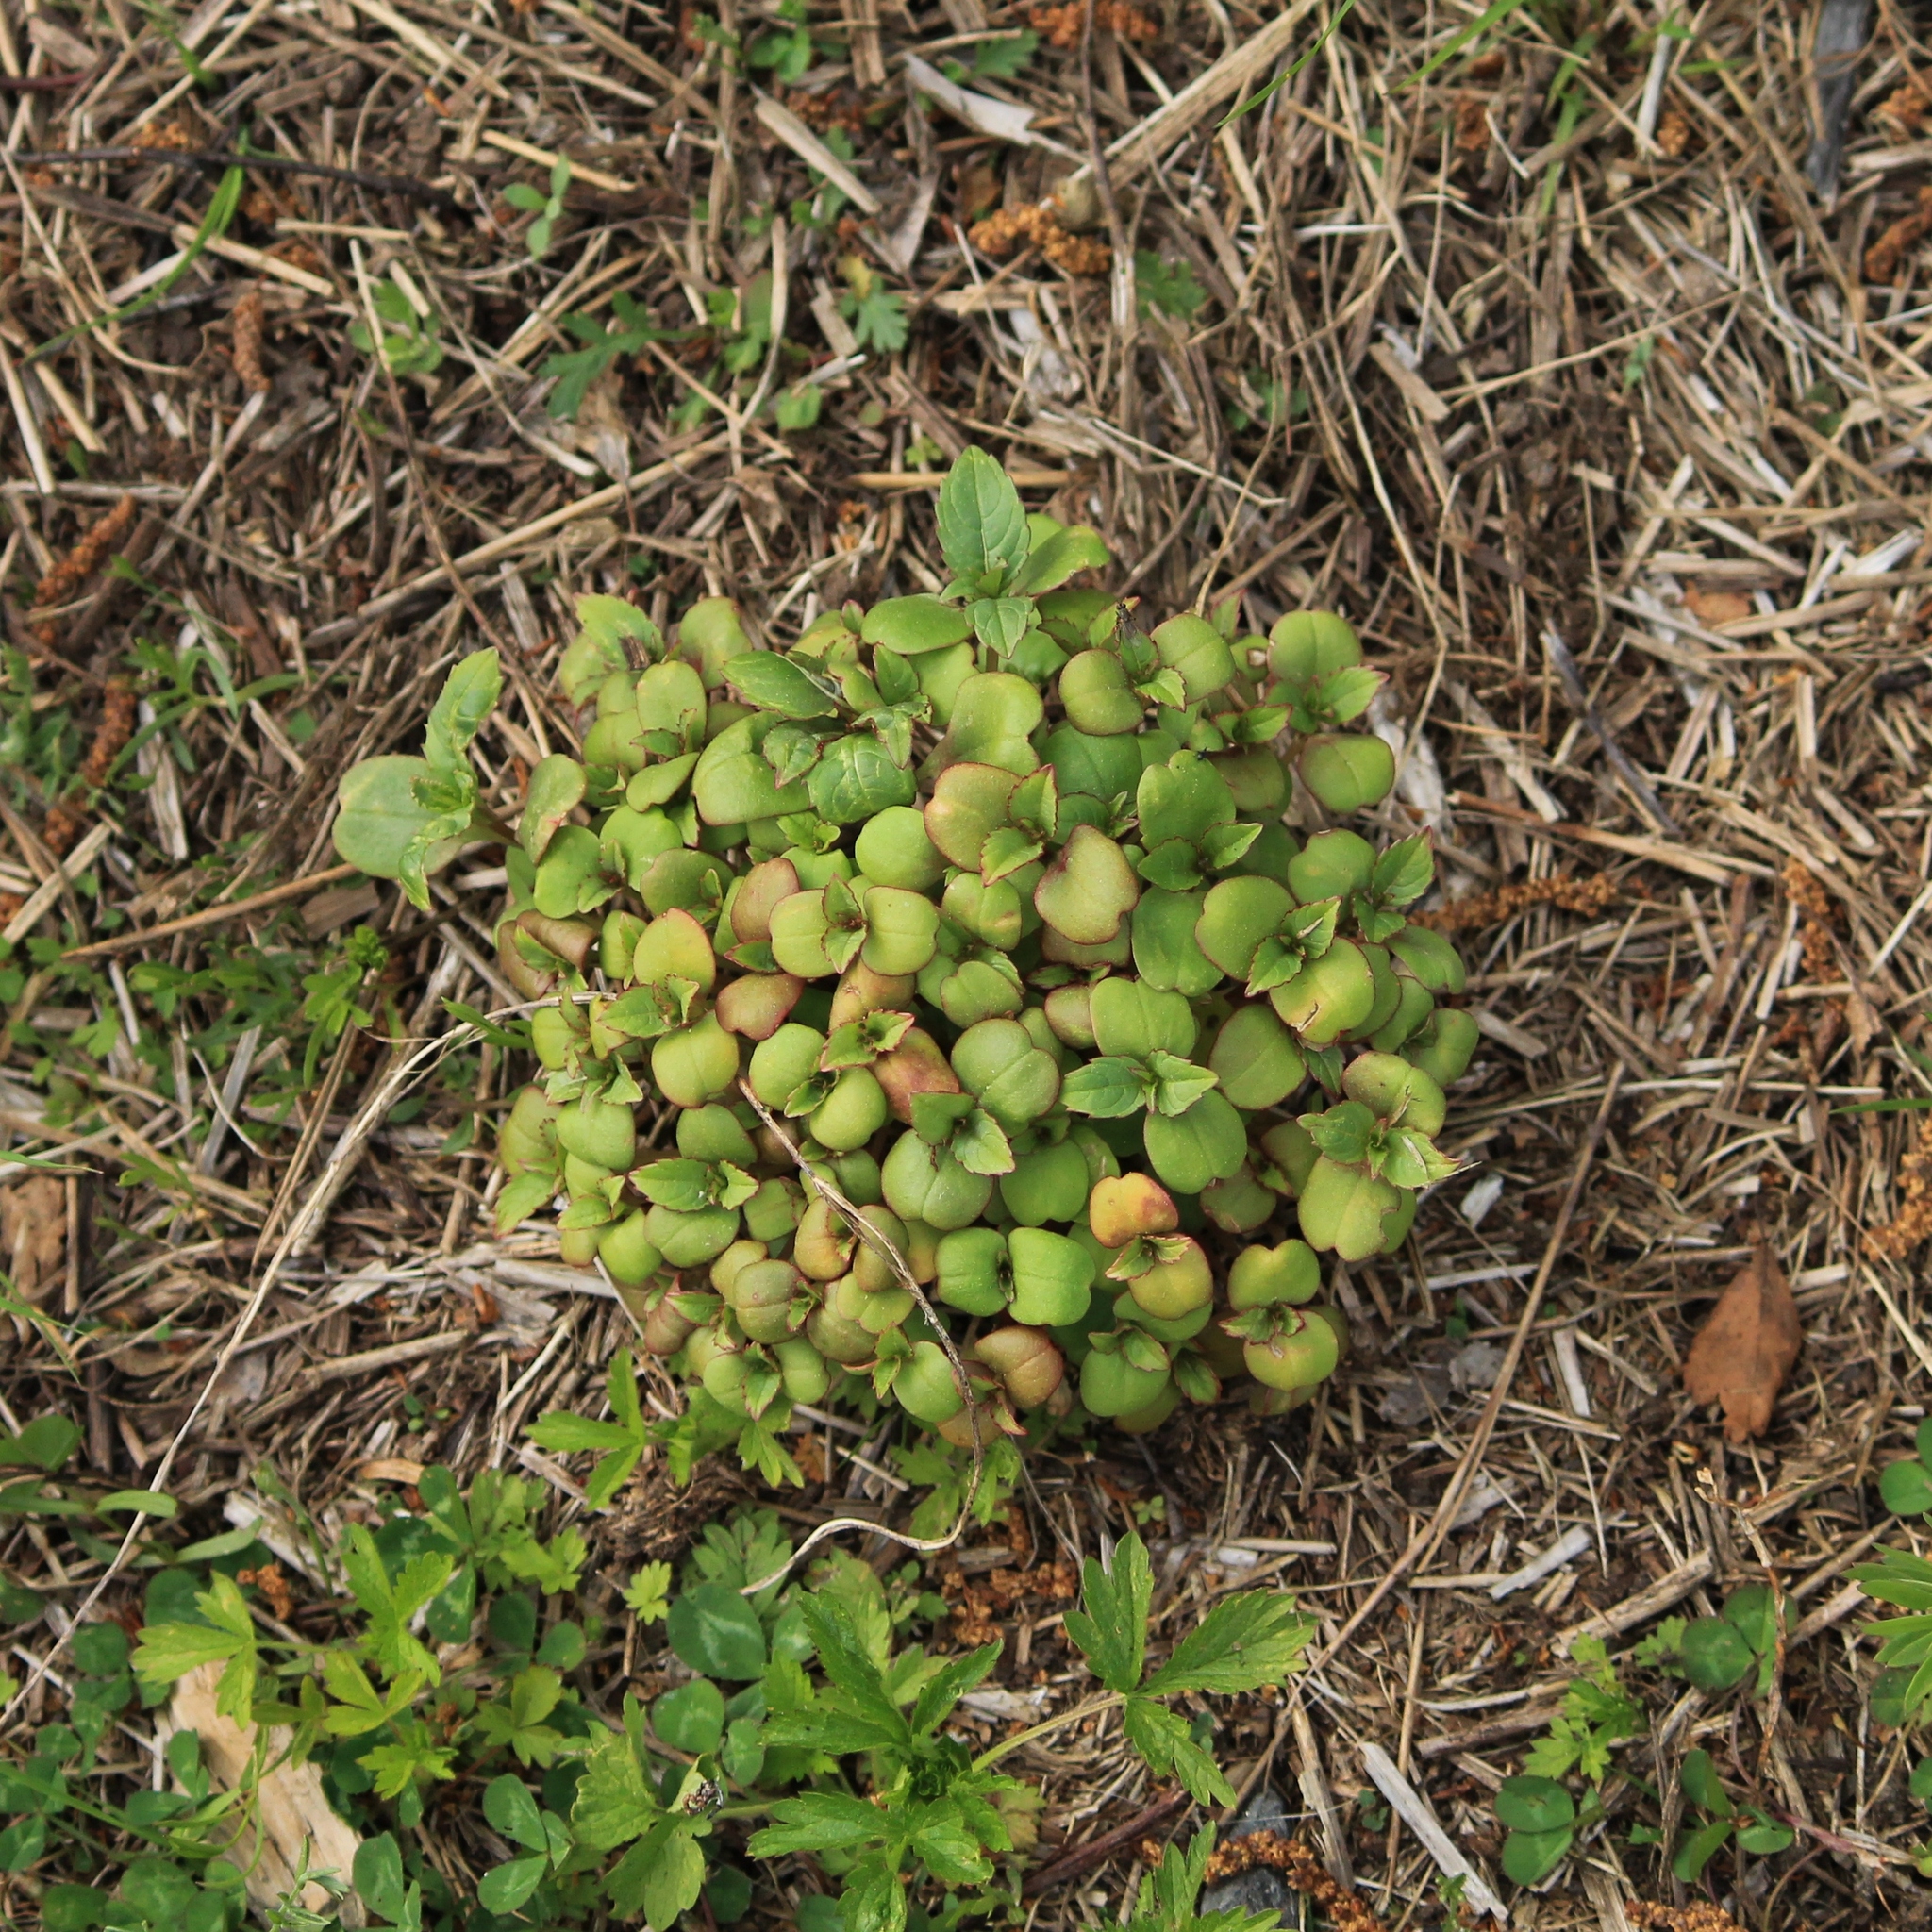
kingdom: Plantae
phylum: Tracheophyta
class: Magnoliopsida
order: Ericales
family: Balsaminaceae
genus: Impatiens
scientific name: Impatiens glandulifera
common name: Himalayan balsam
